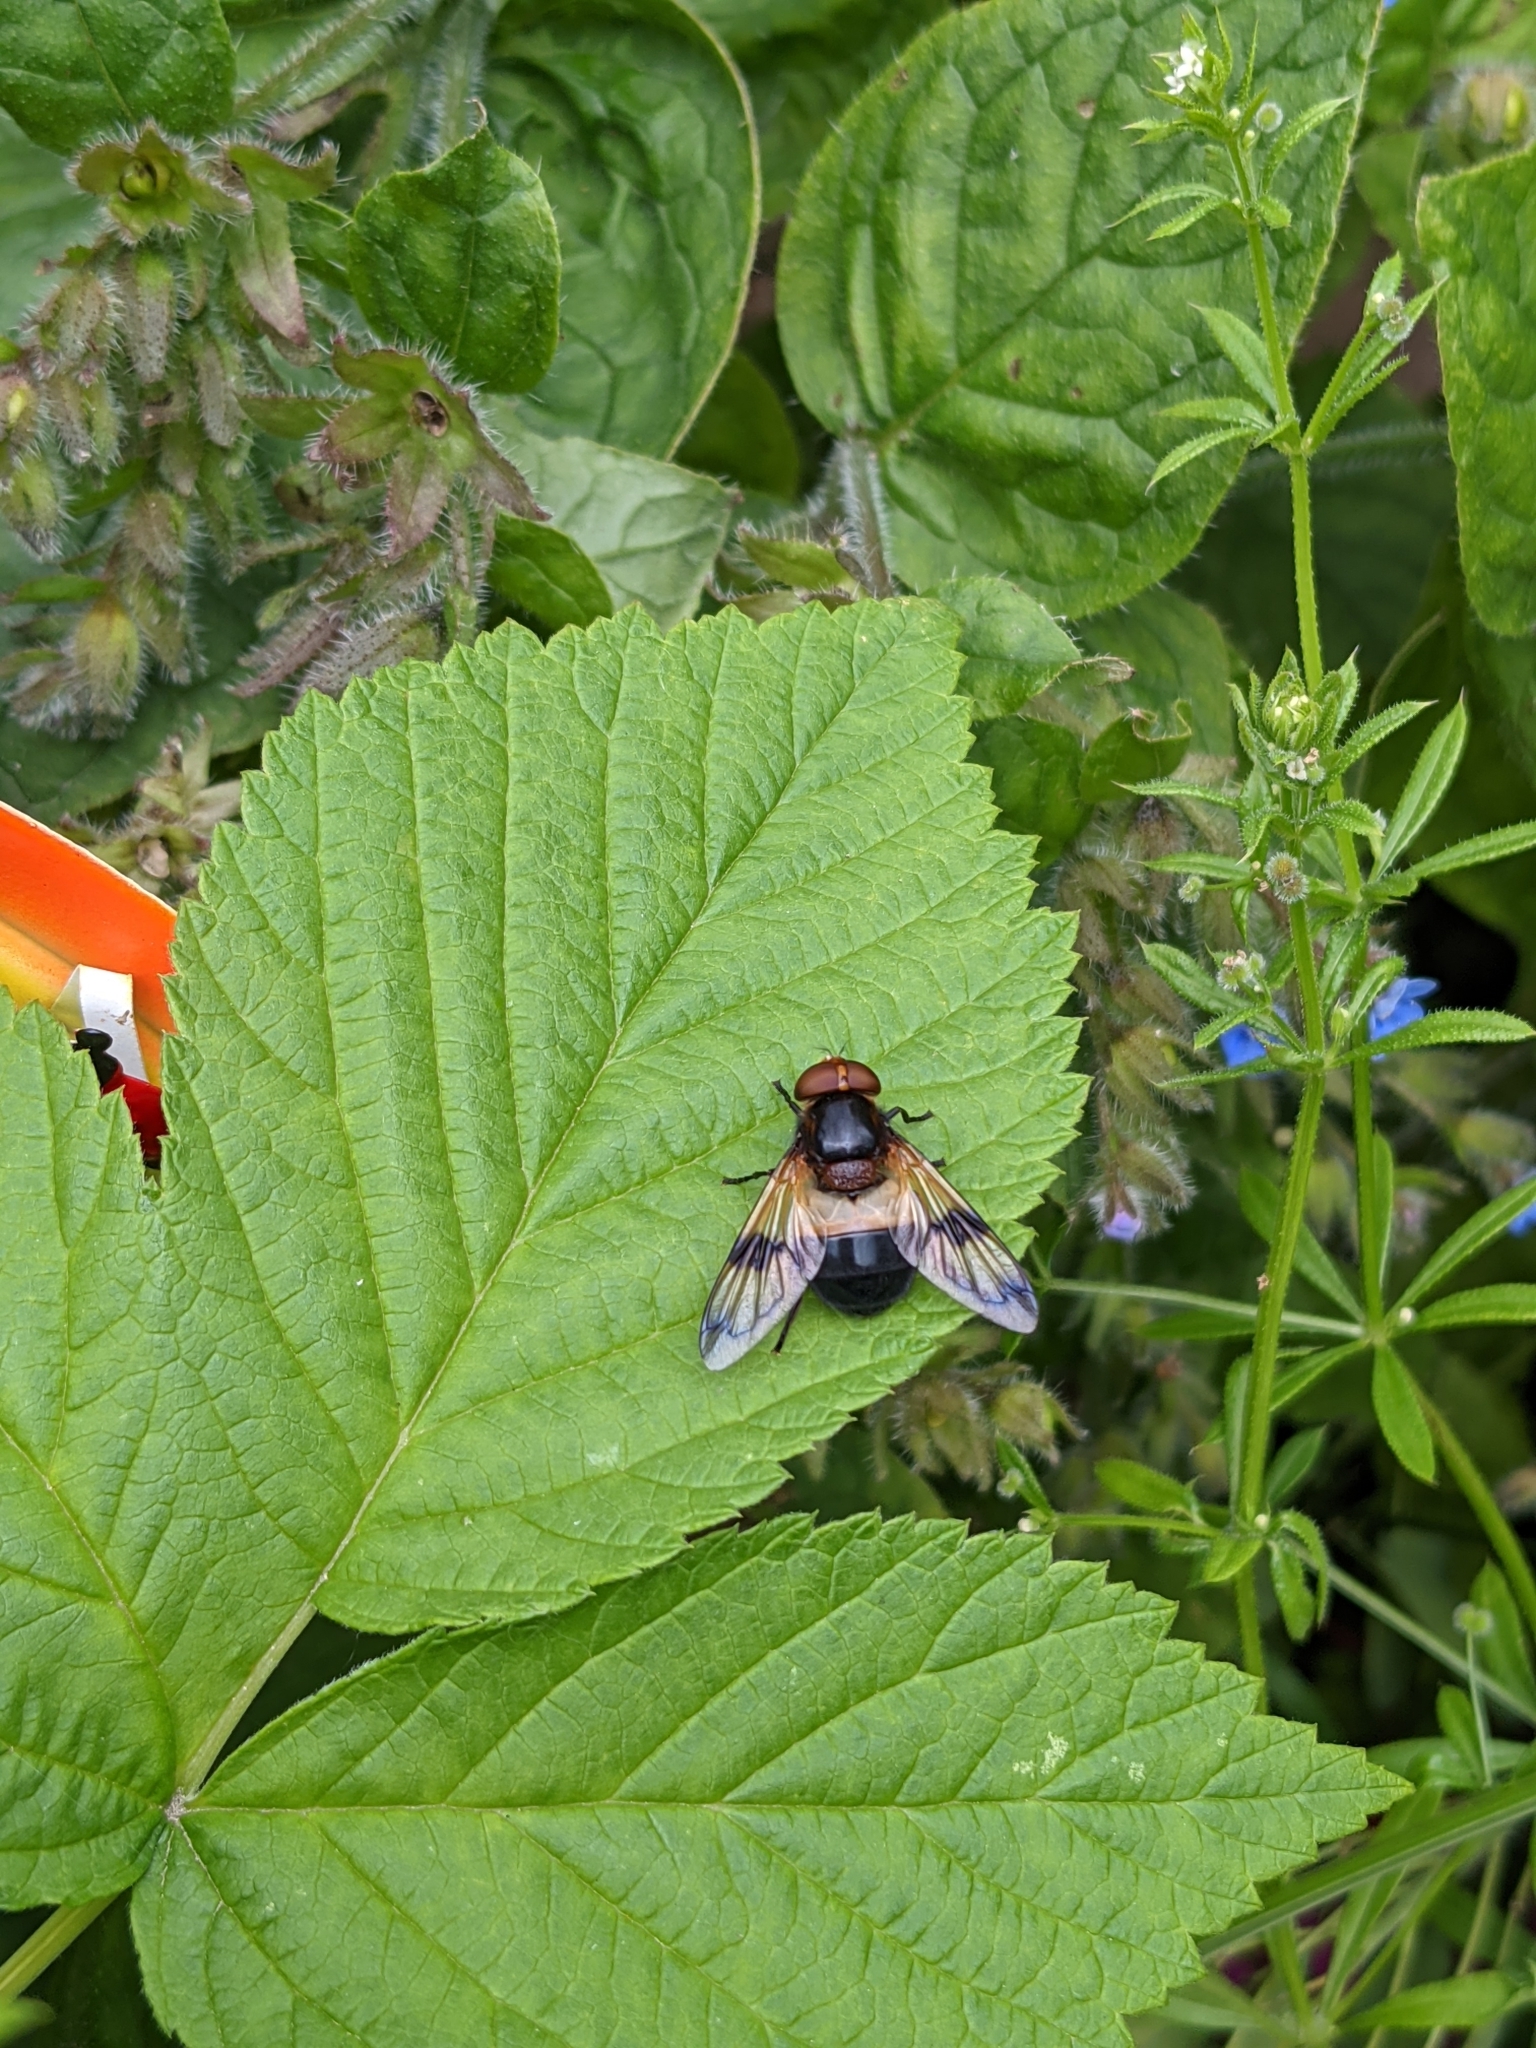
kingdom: Animalia
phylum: Arthropoda
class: Insecta
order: Diptera
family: Syrphidae
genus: Volucella
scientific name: Volucella pellucens
